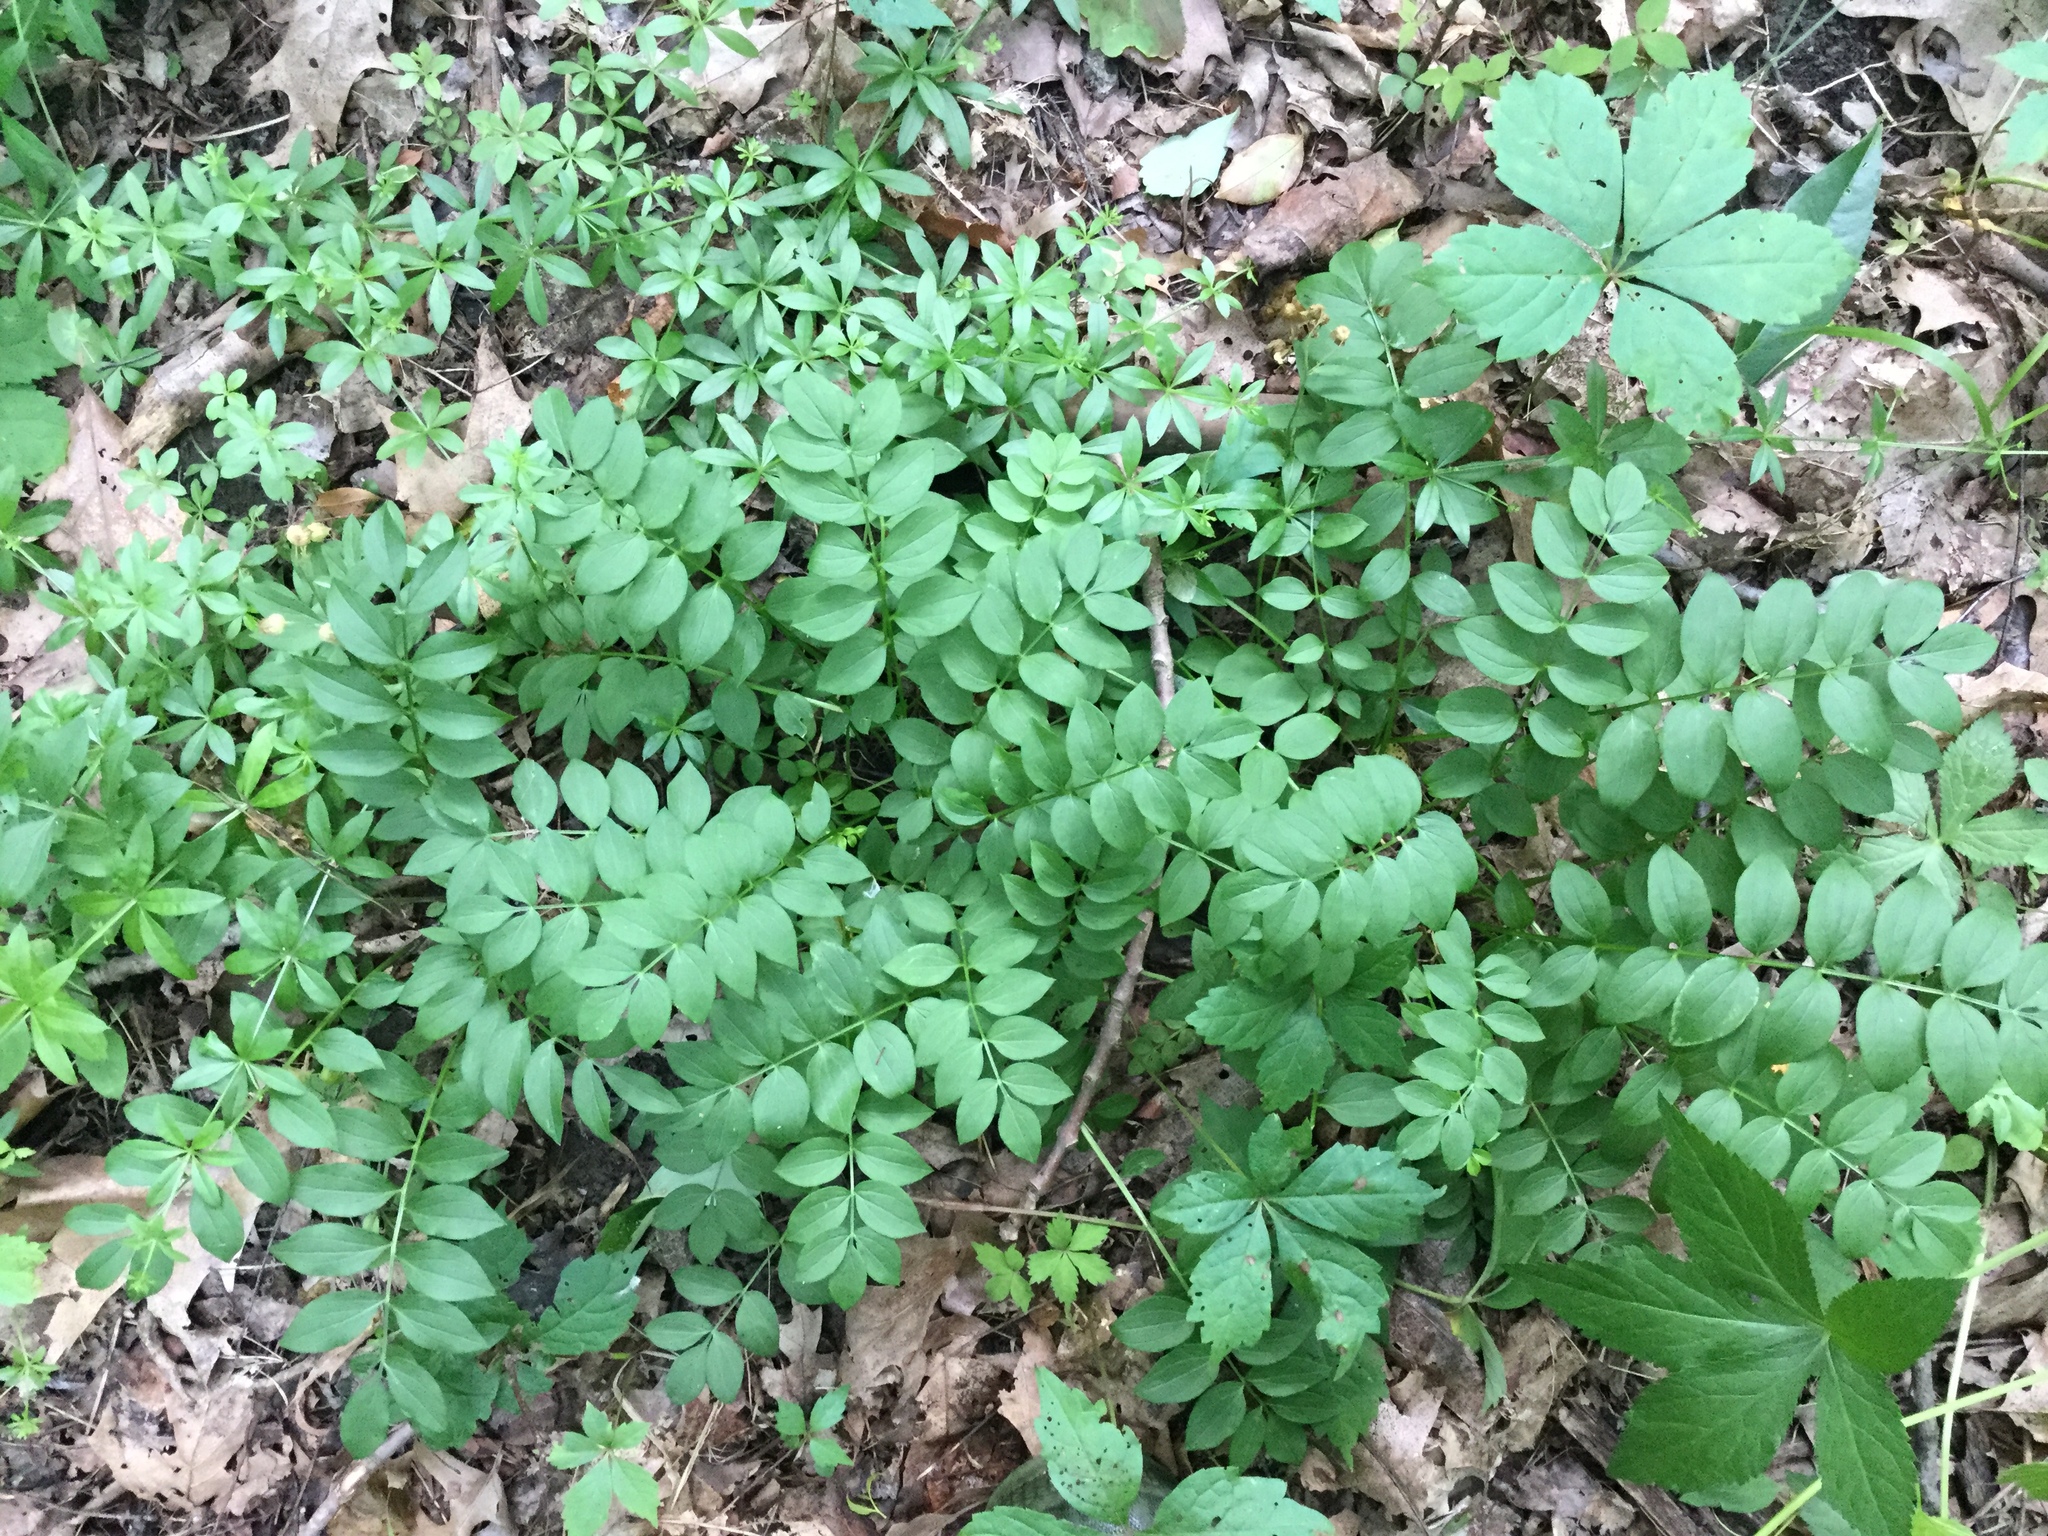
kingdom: Plantae
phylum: Tracheophyta
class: Magnoliopsida
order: Ericales
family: Polemoniaceae
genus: Polemonium
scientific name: Polemonium reptans
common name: Creeping jacob's-ladder
